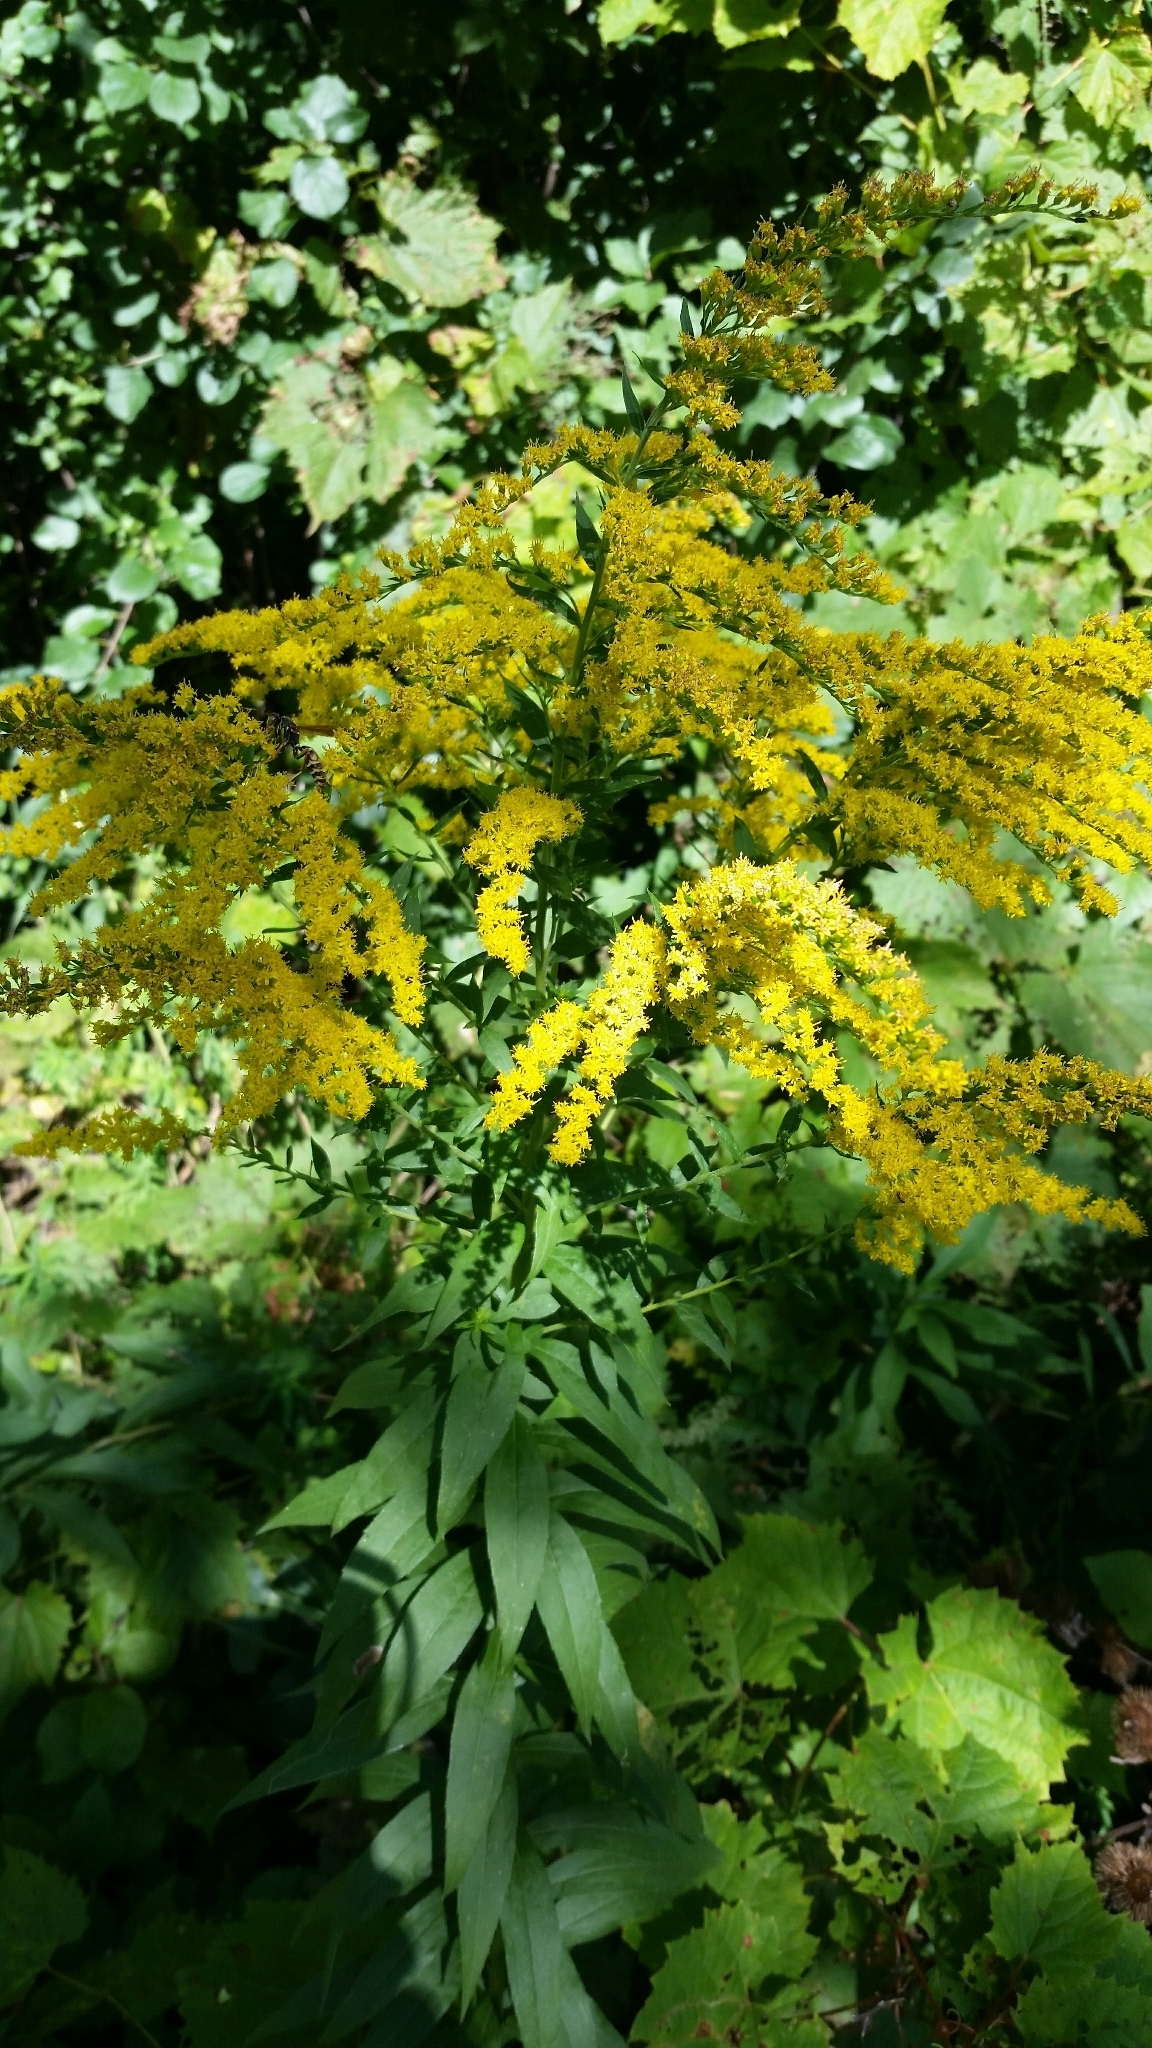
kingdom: Plantae
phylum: Tracheophyta
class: Magnoliopsida
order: Asterales
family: Asteraceae
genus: Solidago
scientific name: Solidago canadensis
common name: Canada goldenrod
